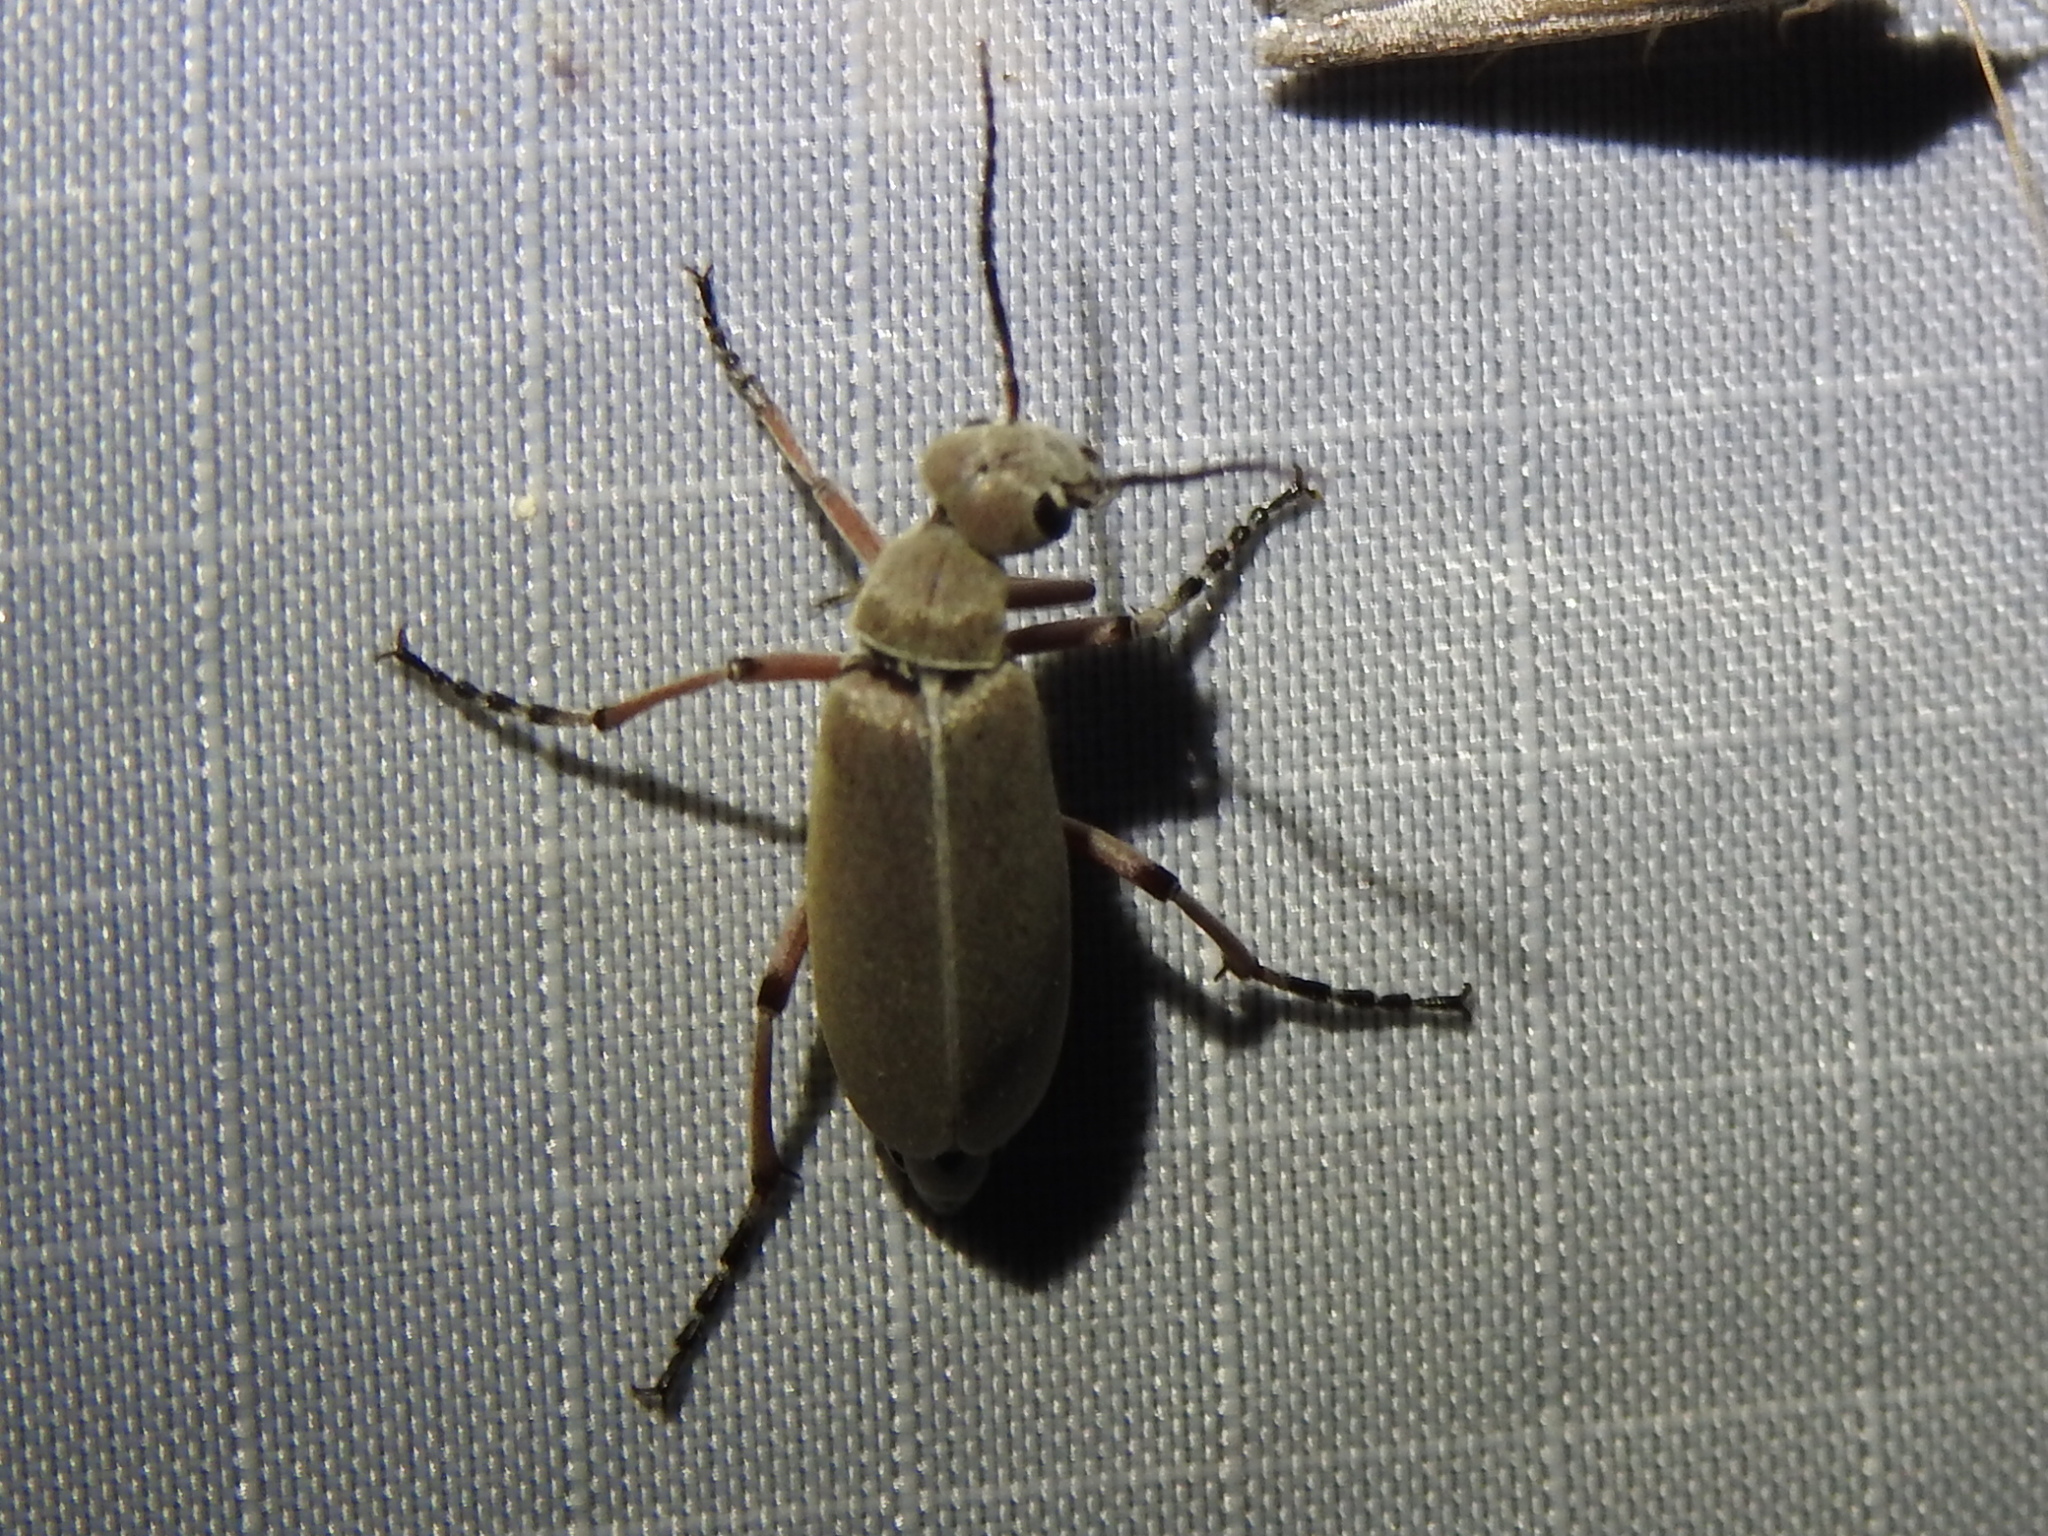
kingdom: Animalia
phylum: Arthropoda
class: Insecta
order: Coleoptera
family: Meloidae
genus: Epicauta
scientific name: Epicauta nigritarsis
